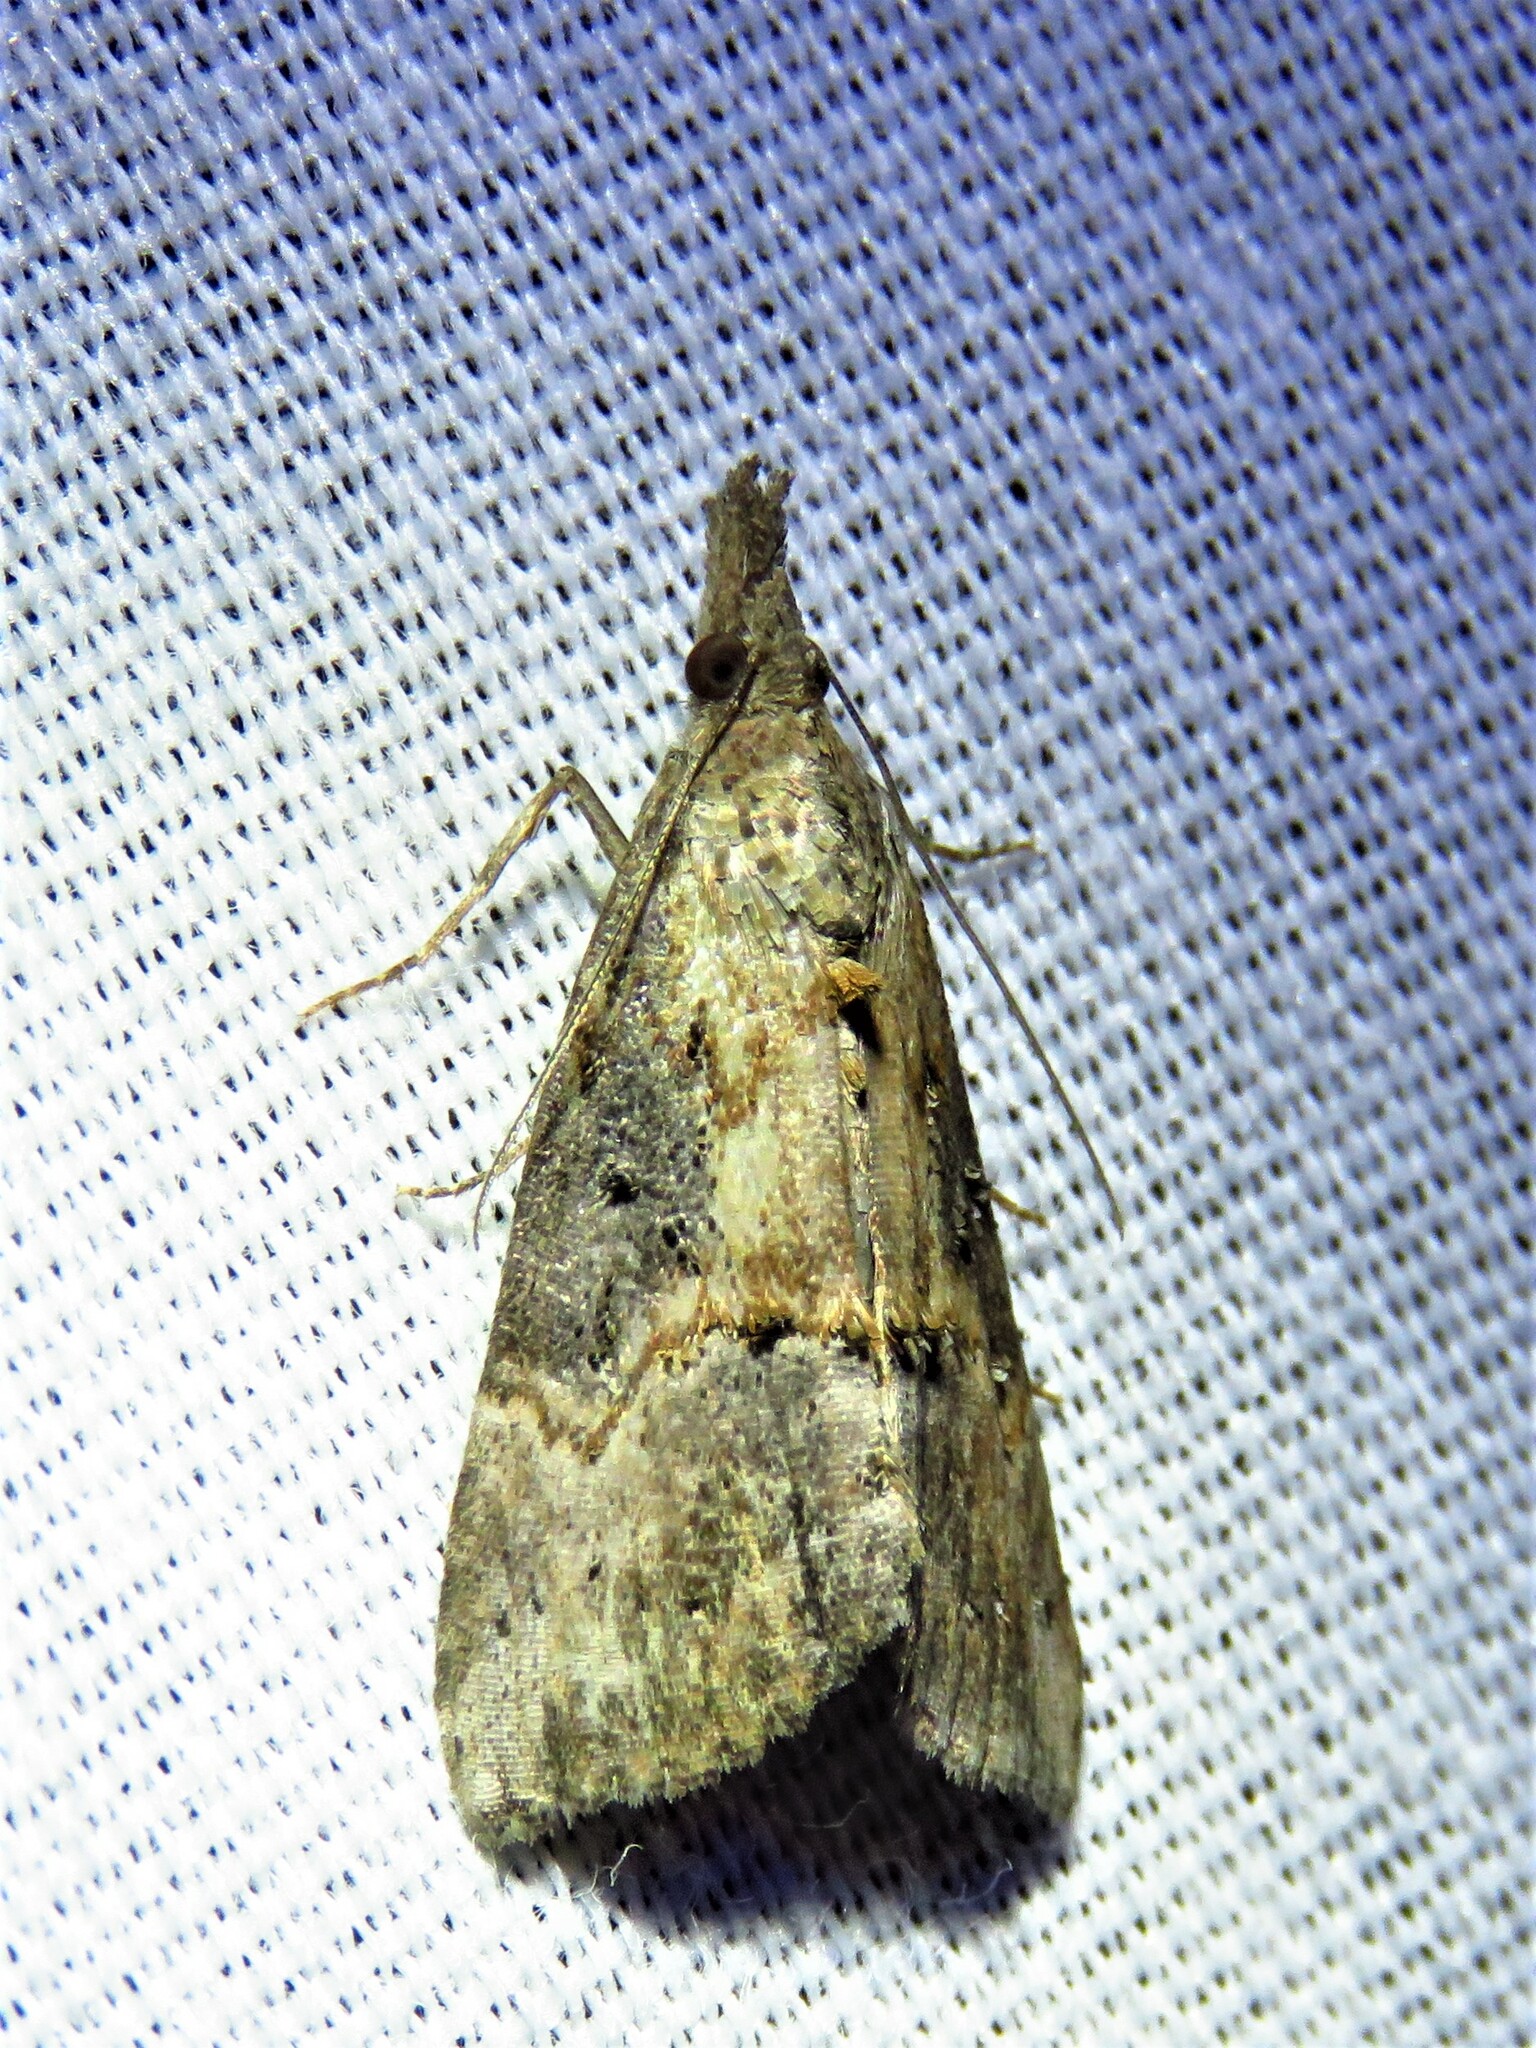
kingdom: Animalia
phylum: Arthropoda
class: Insecta
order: Lepidoptera
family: Erebidae
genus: Hypena
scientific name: Hypena scabra
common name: Green cloverworm
